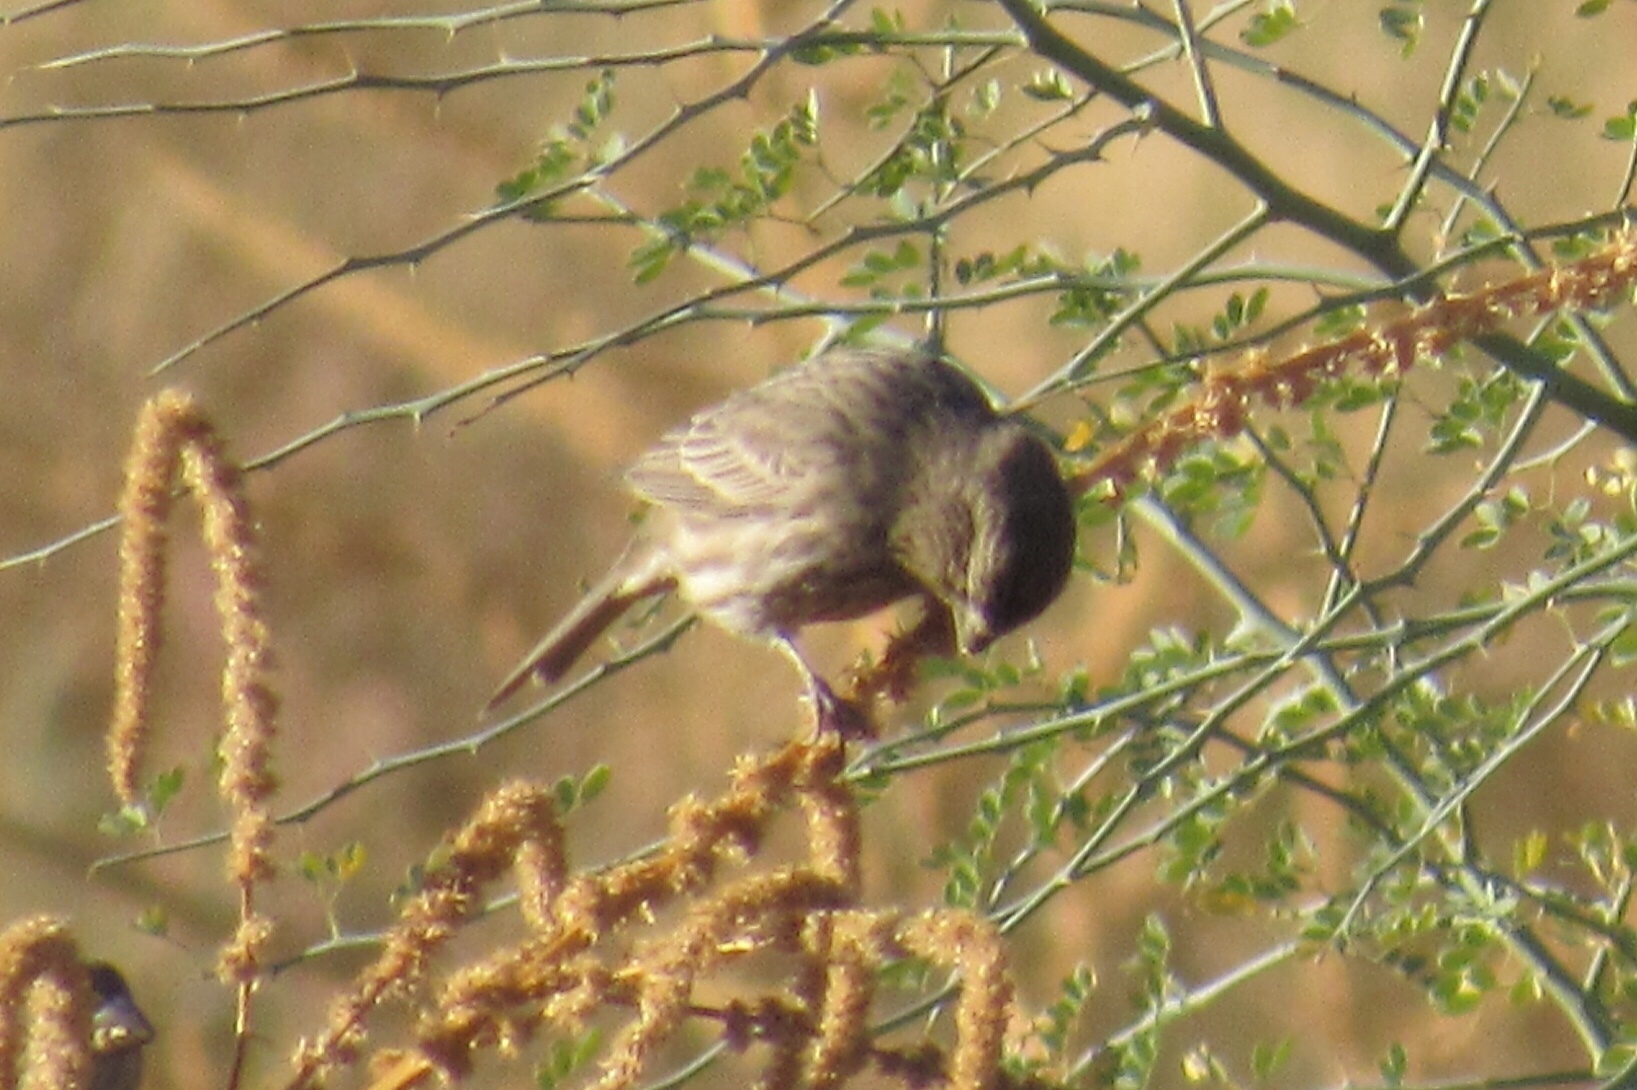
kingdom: Animalia
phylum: Chordata
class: Aves
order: Passeriformes
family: Fringillidae
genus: Haemorhous
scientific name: Haemorhous mexicanus
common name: House finch
